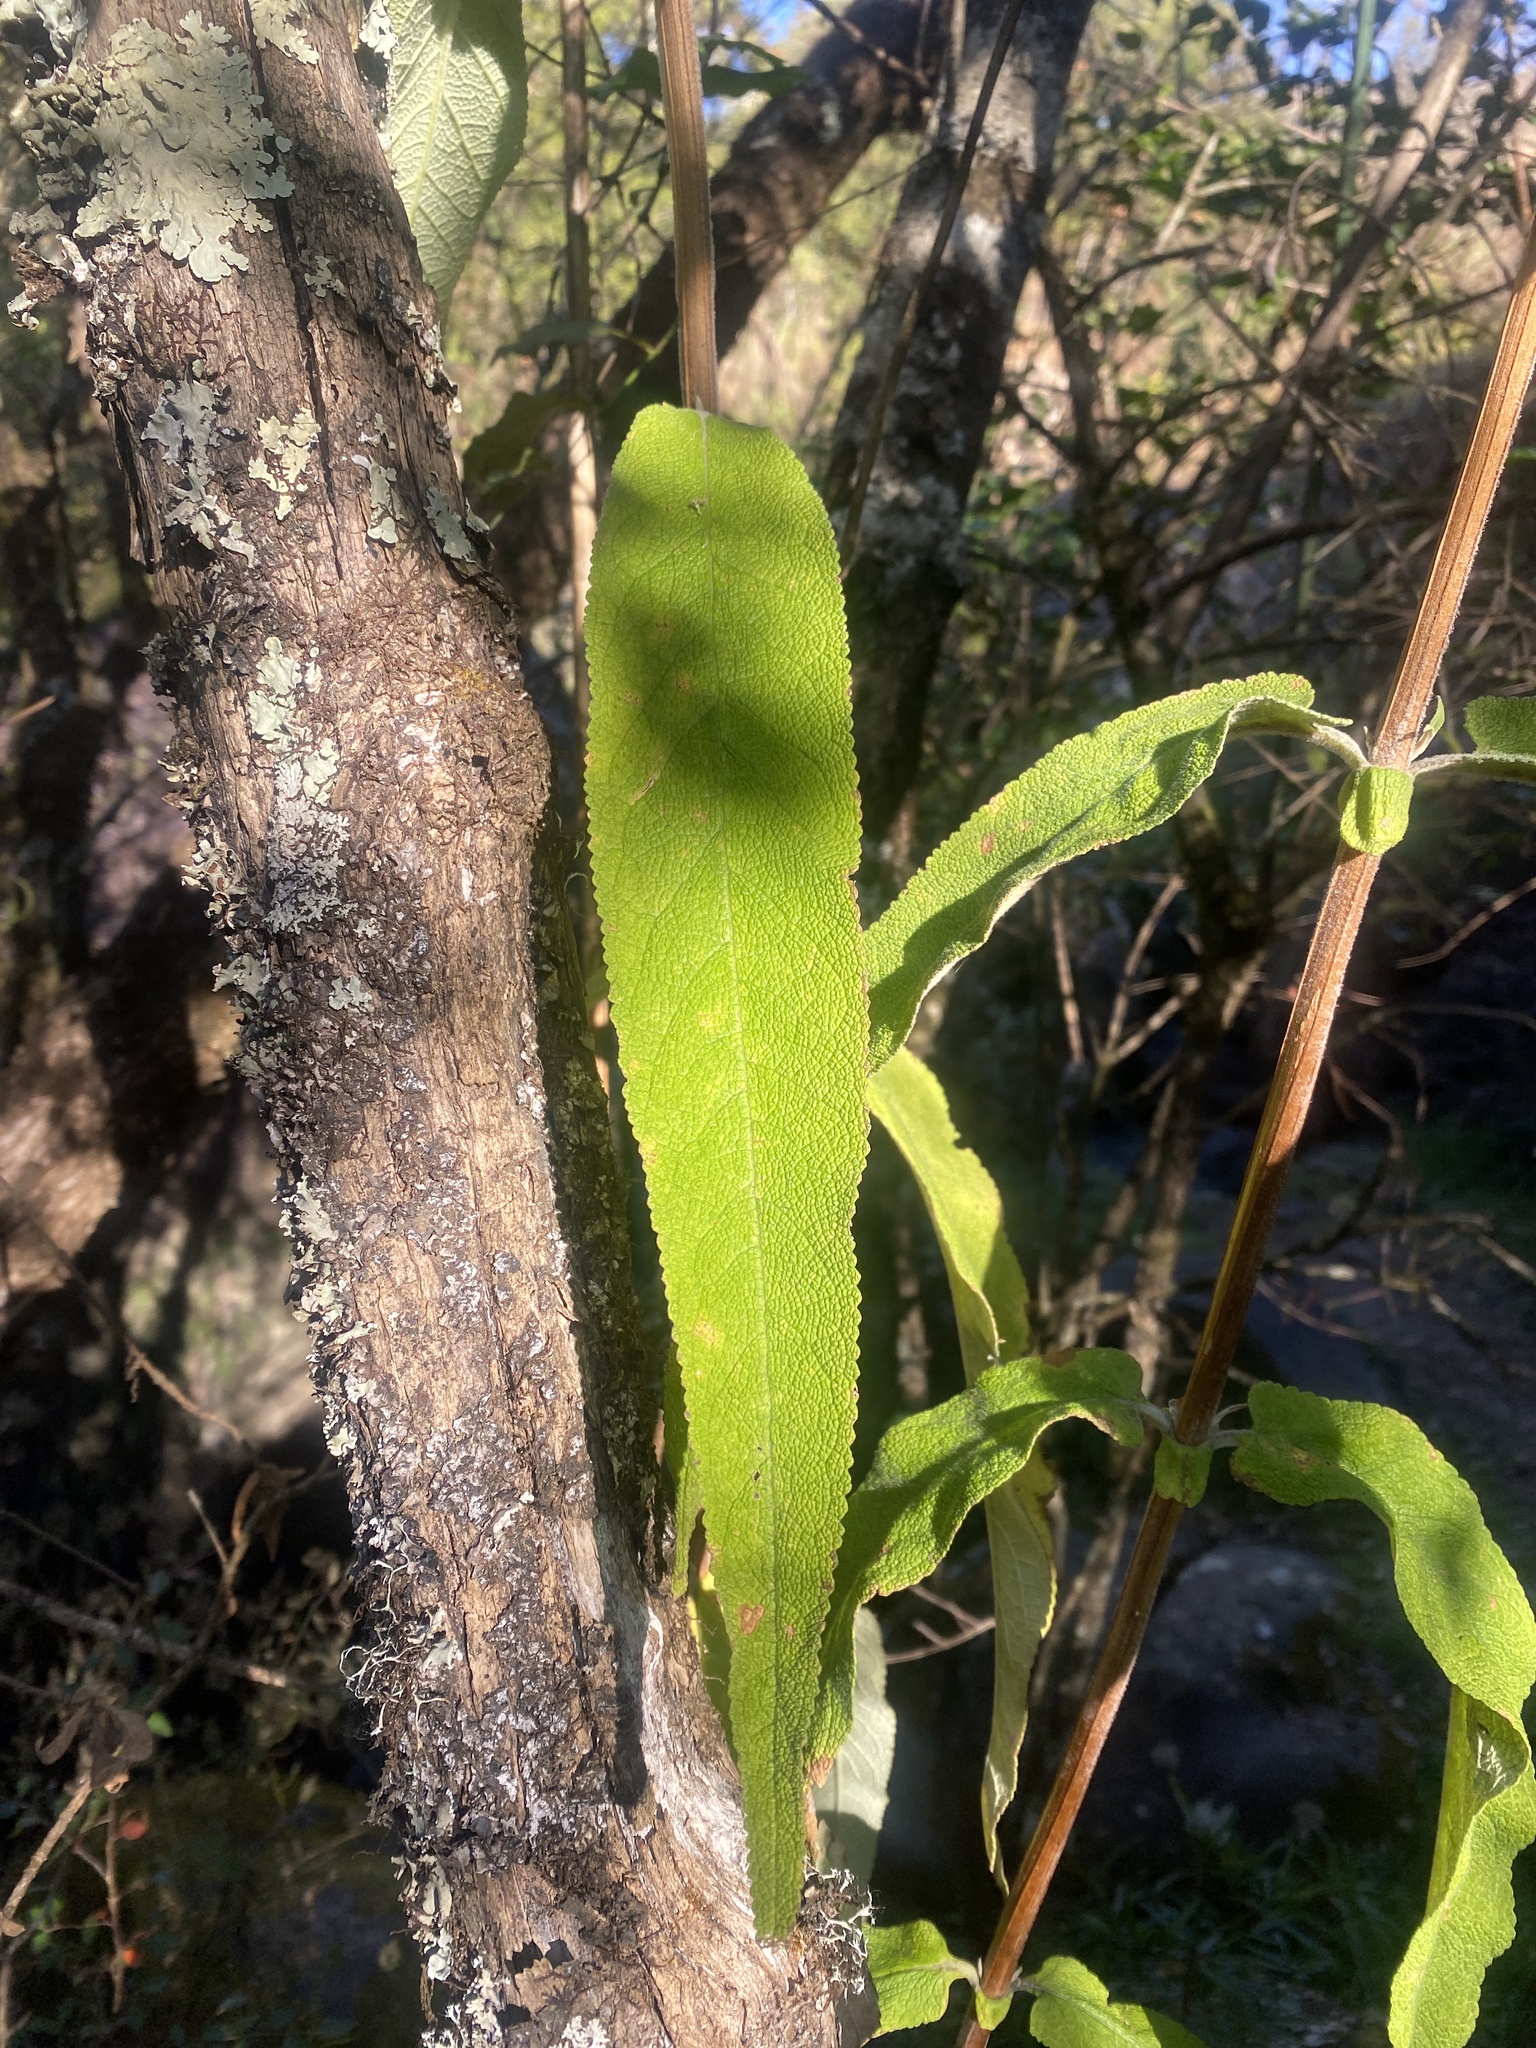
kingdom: Plantae
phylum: Tracheophyta
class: Magnoliopsida
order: Lamiales
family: Scrophulariaceae
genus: Buddleja
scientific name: Buddleja salviifolia
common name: Sagewood
